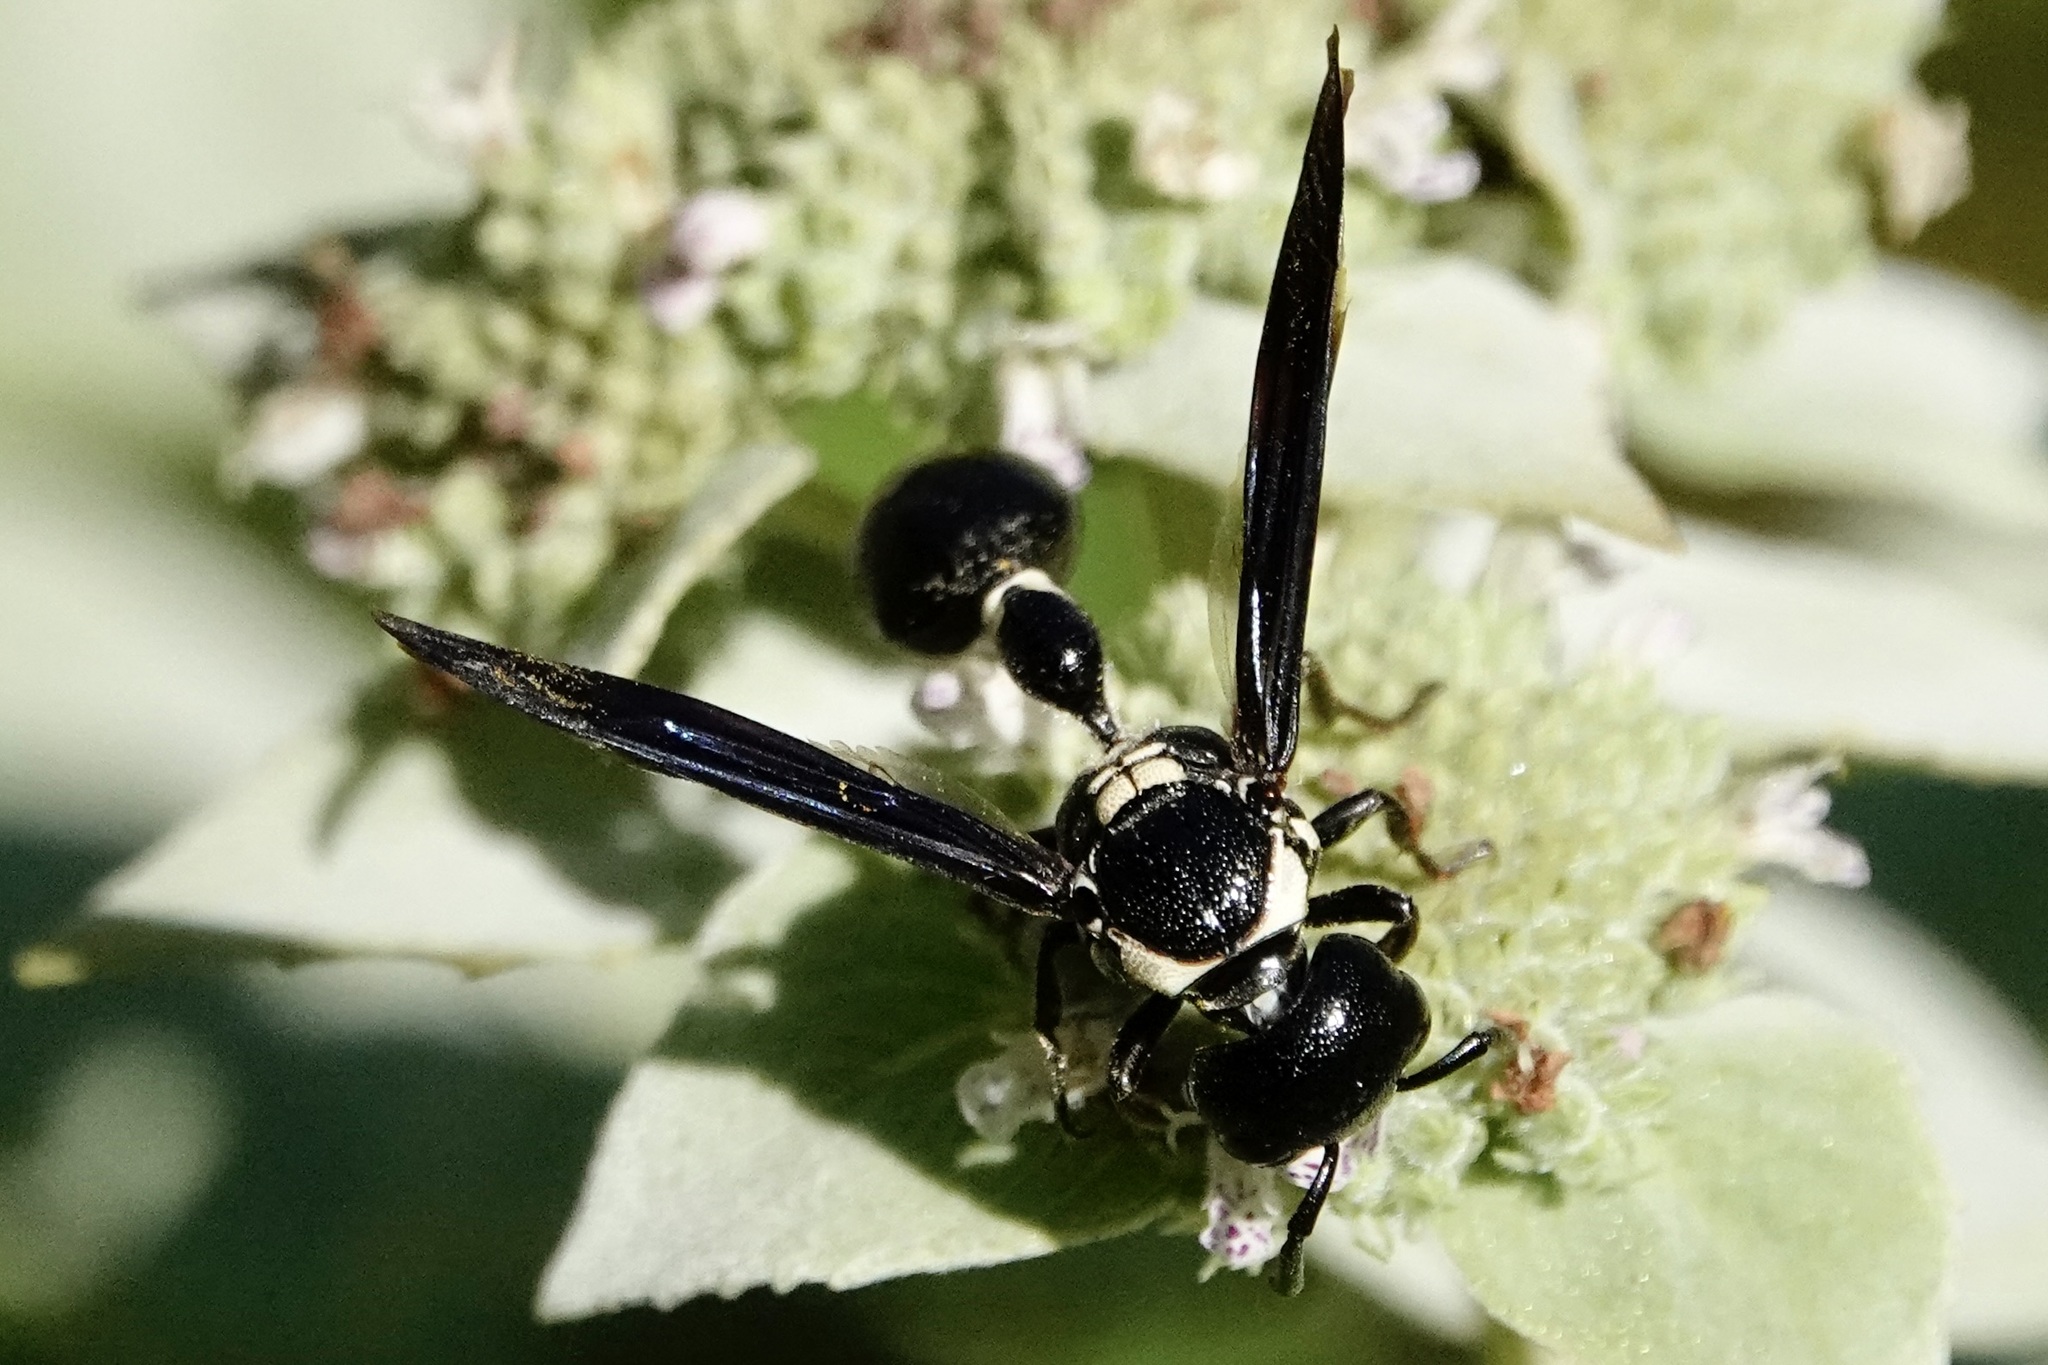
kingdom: Animalia
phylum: Arthropoda
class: Insecta
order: Hymenoptera
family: Eumenidae
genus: Zethus
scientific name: Zethus spinipes
